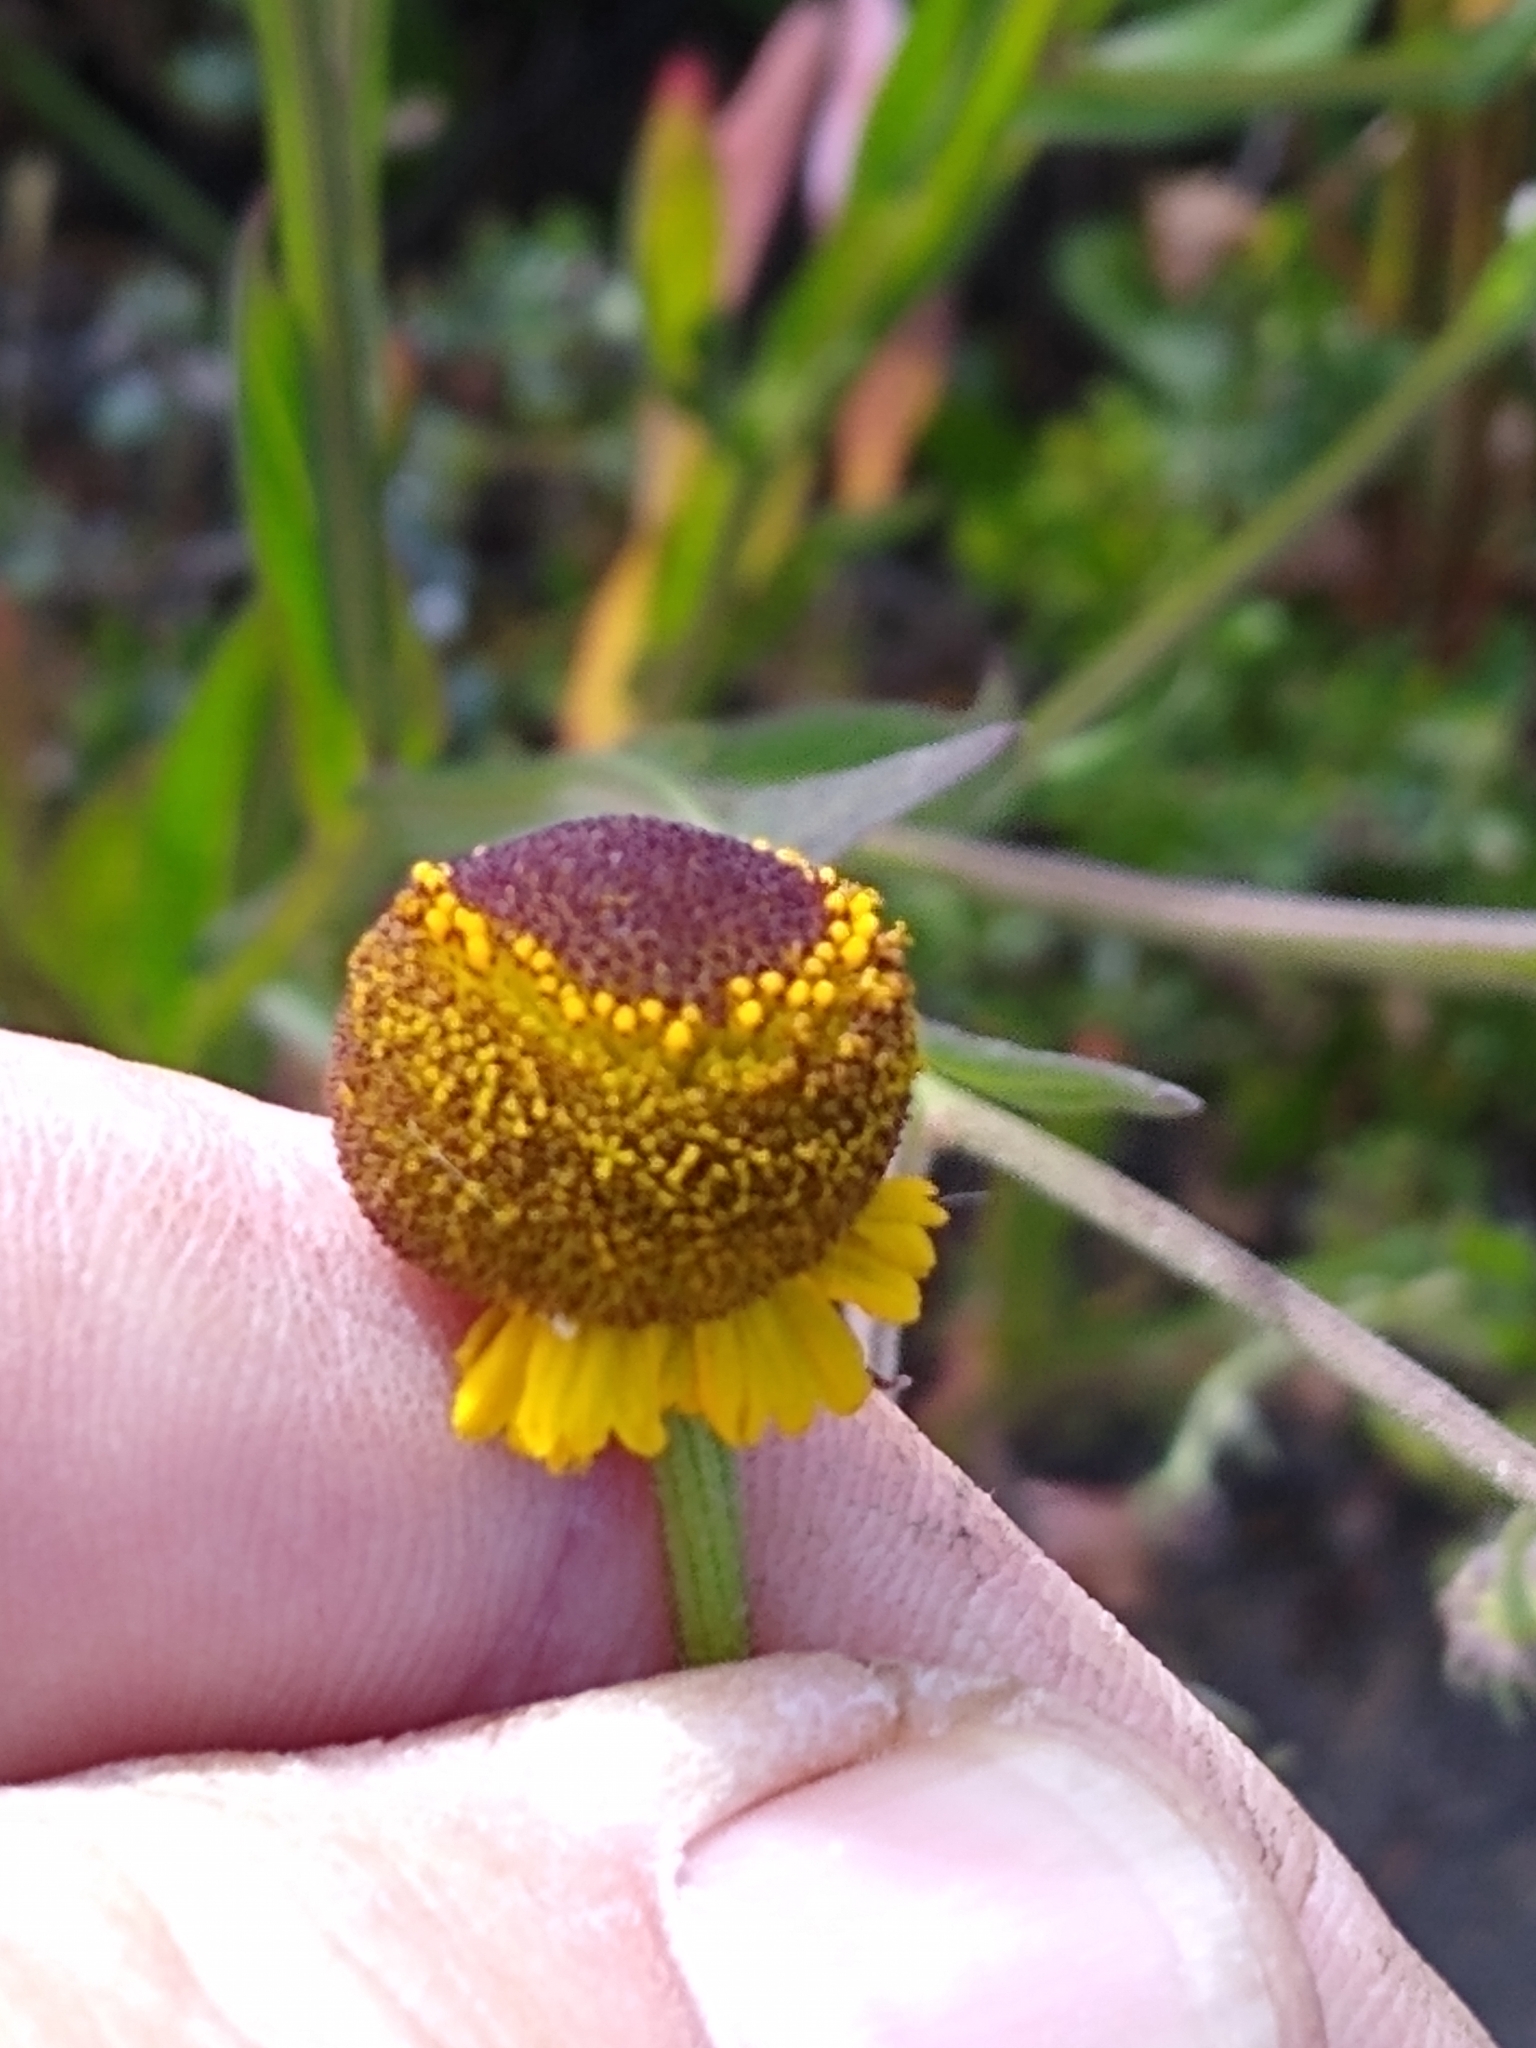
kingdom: Plantae
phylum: Tracheophyta
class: Magnoliopsida
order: Asterales
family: Asteraceae
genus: Helenium
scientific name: Helenium puberulum
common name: Sneezewort
